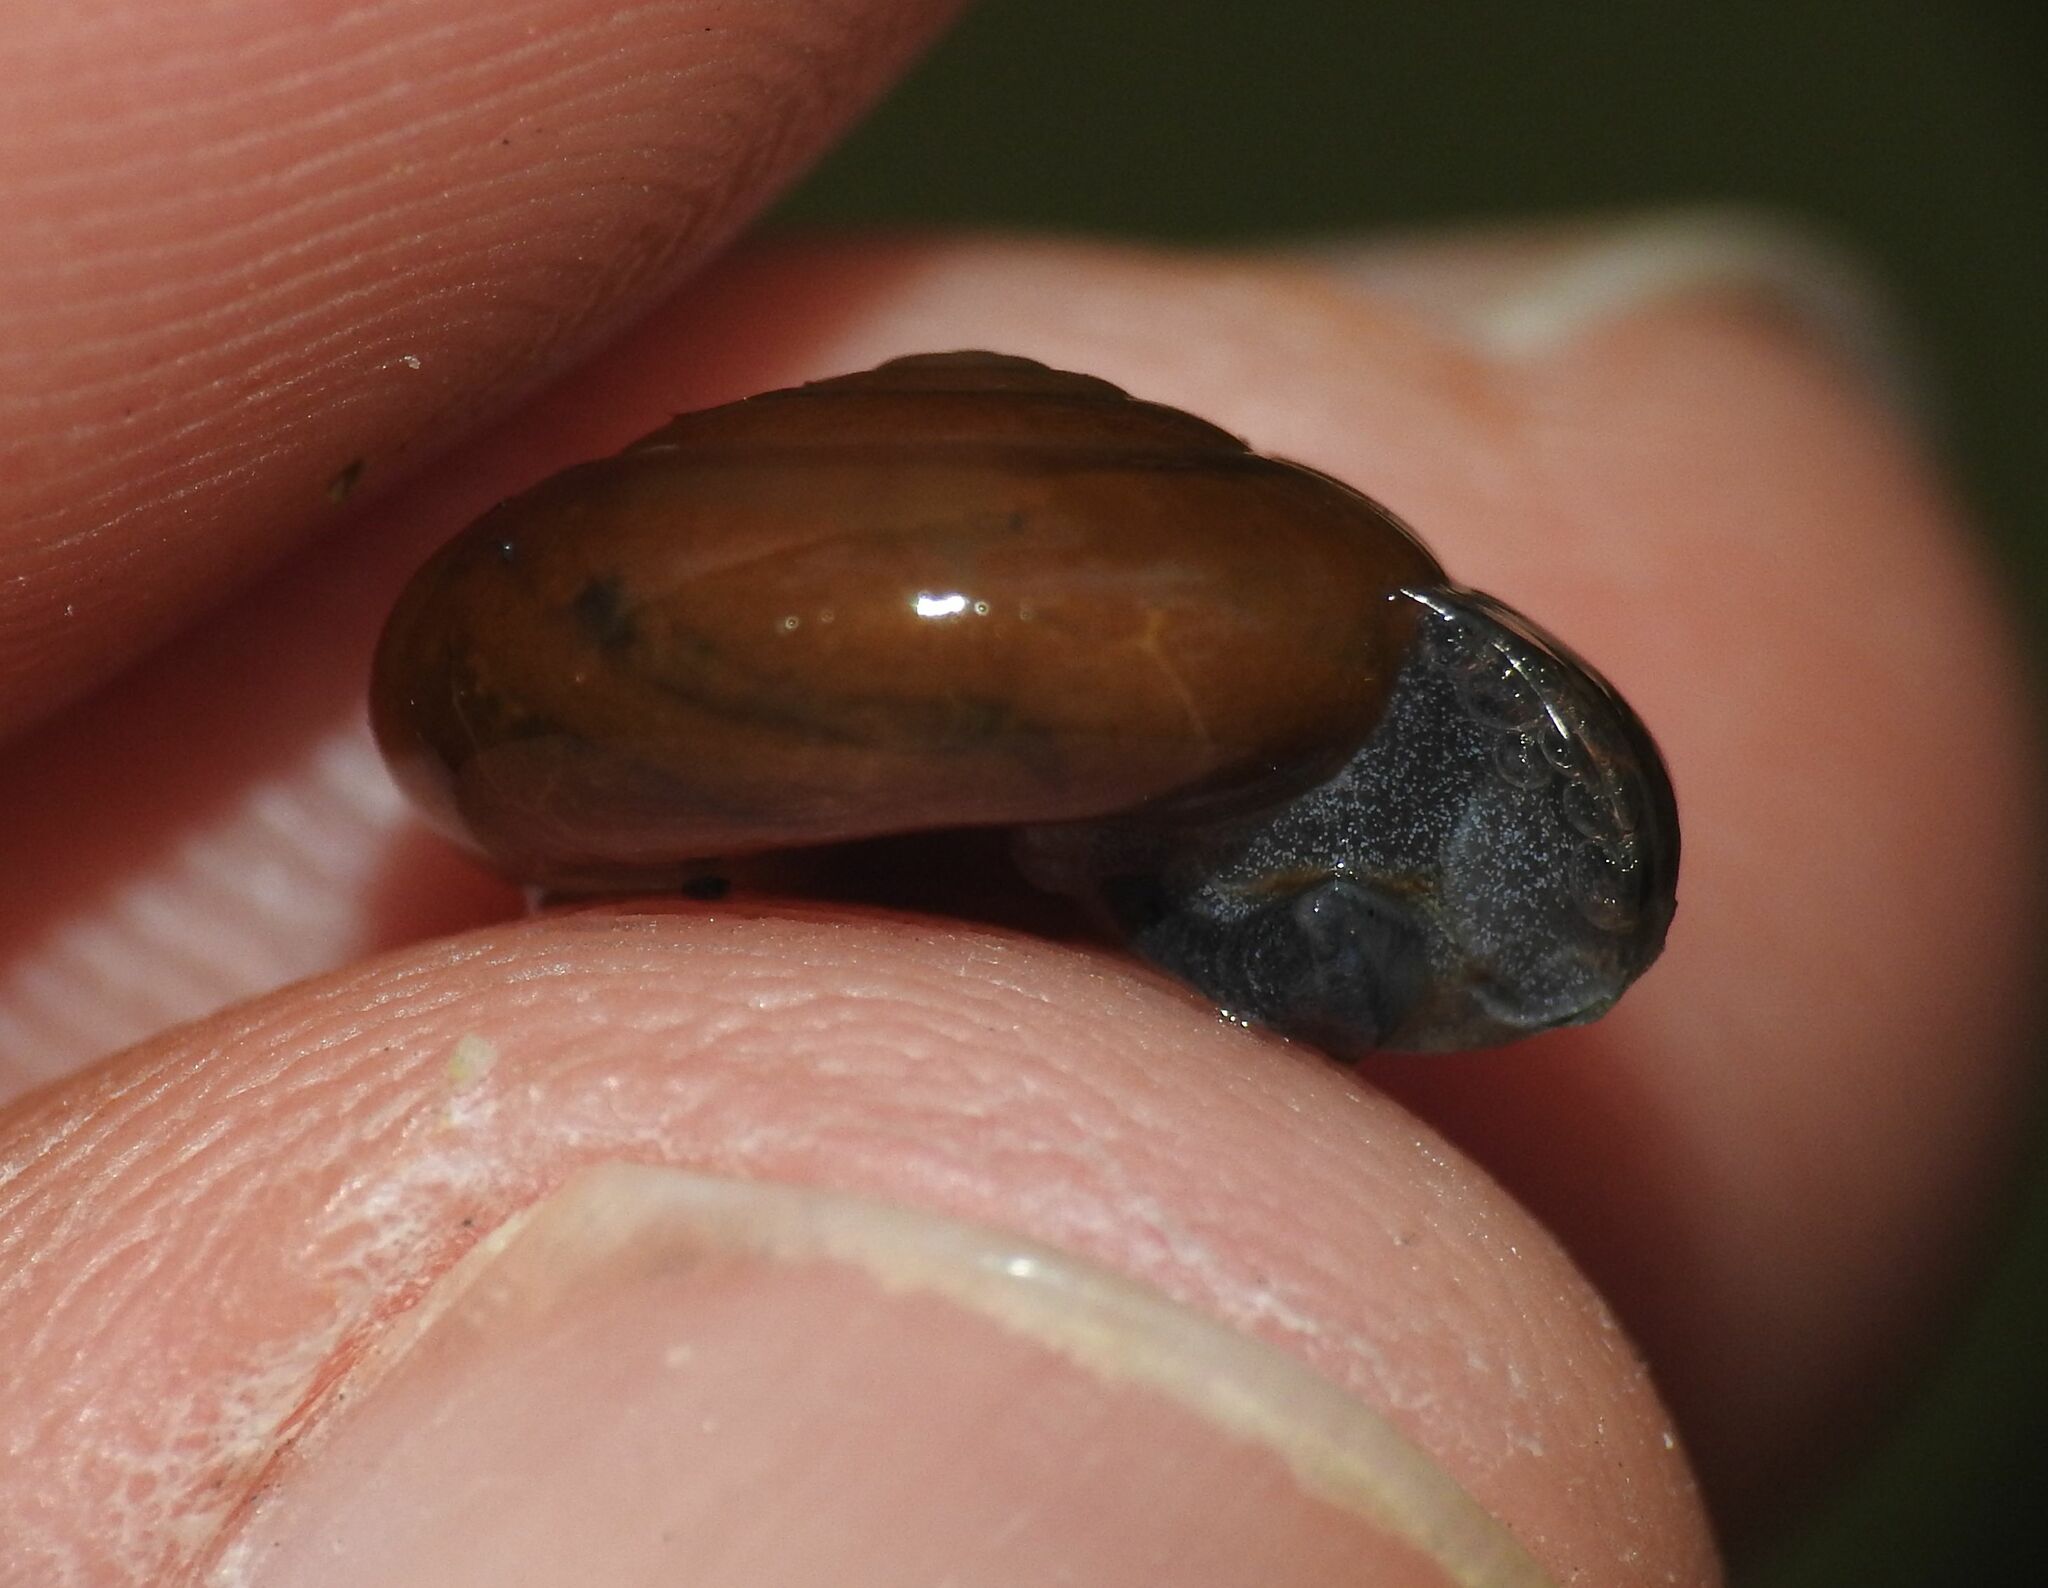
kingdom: Animalia
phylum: Mollusca
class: Gastropoda
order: Stylommatophora
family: Oxychilidae
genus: Morlina
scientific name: Morlina glabra
